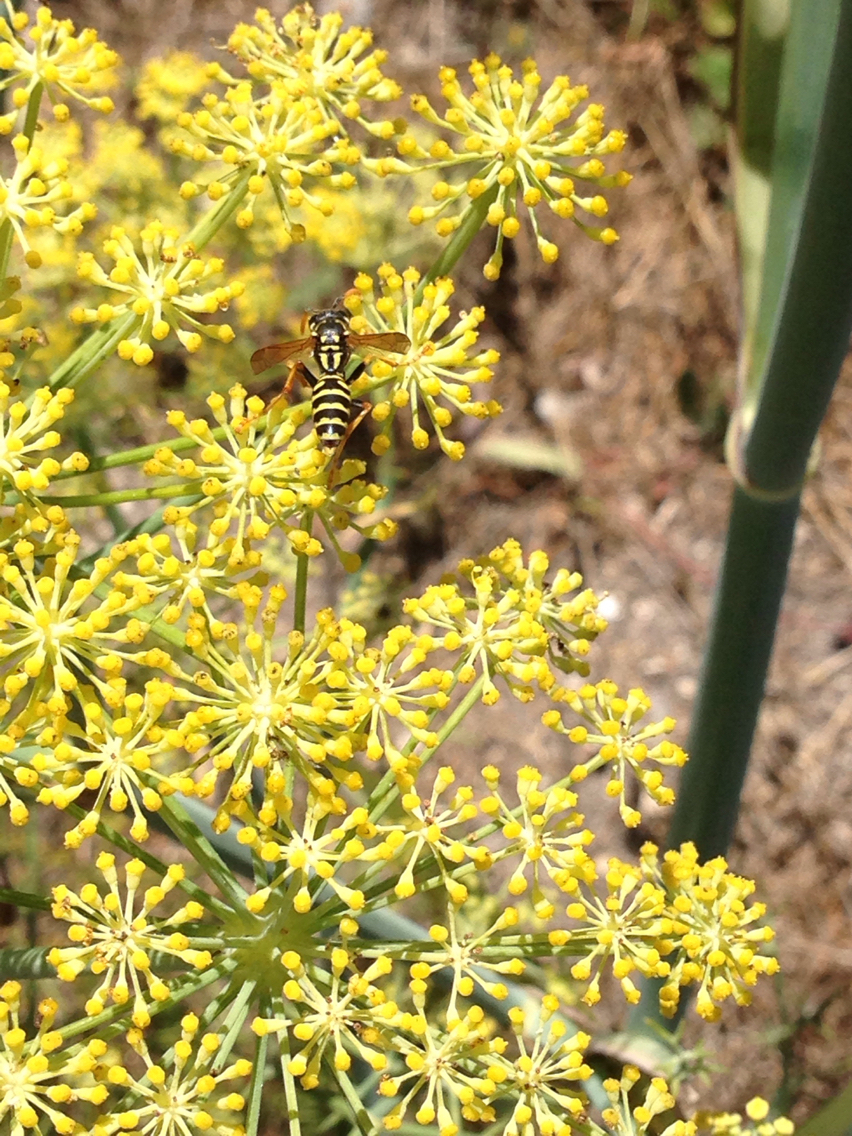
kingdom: Animalia
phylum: Arthropoda
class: Insecta
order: Hymenoptera
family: Eumenidae
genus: Polistes
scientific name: Polistes dominula
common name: Paper wasp
